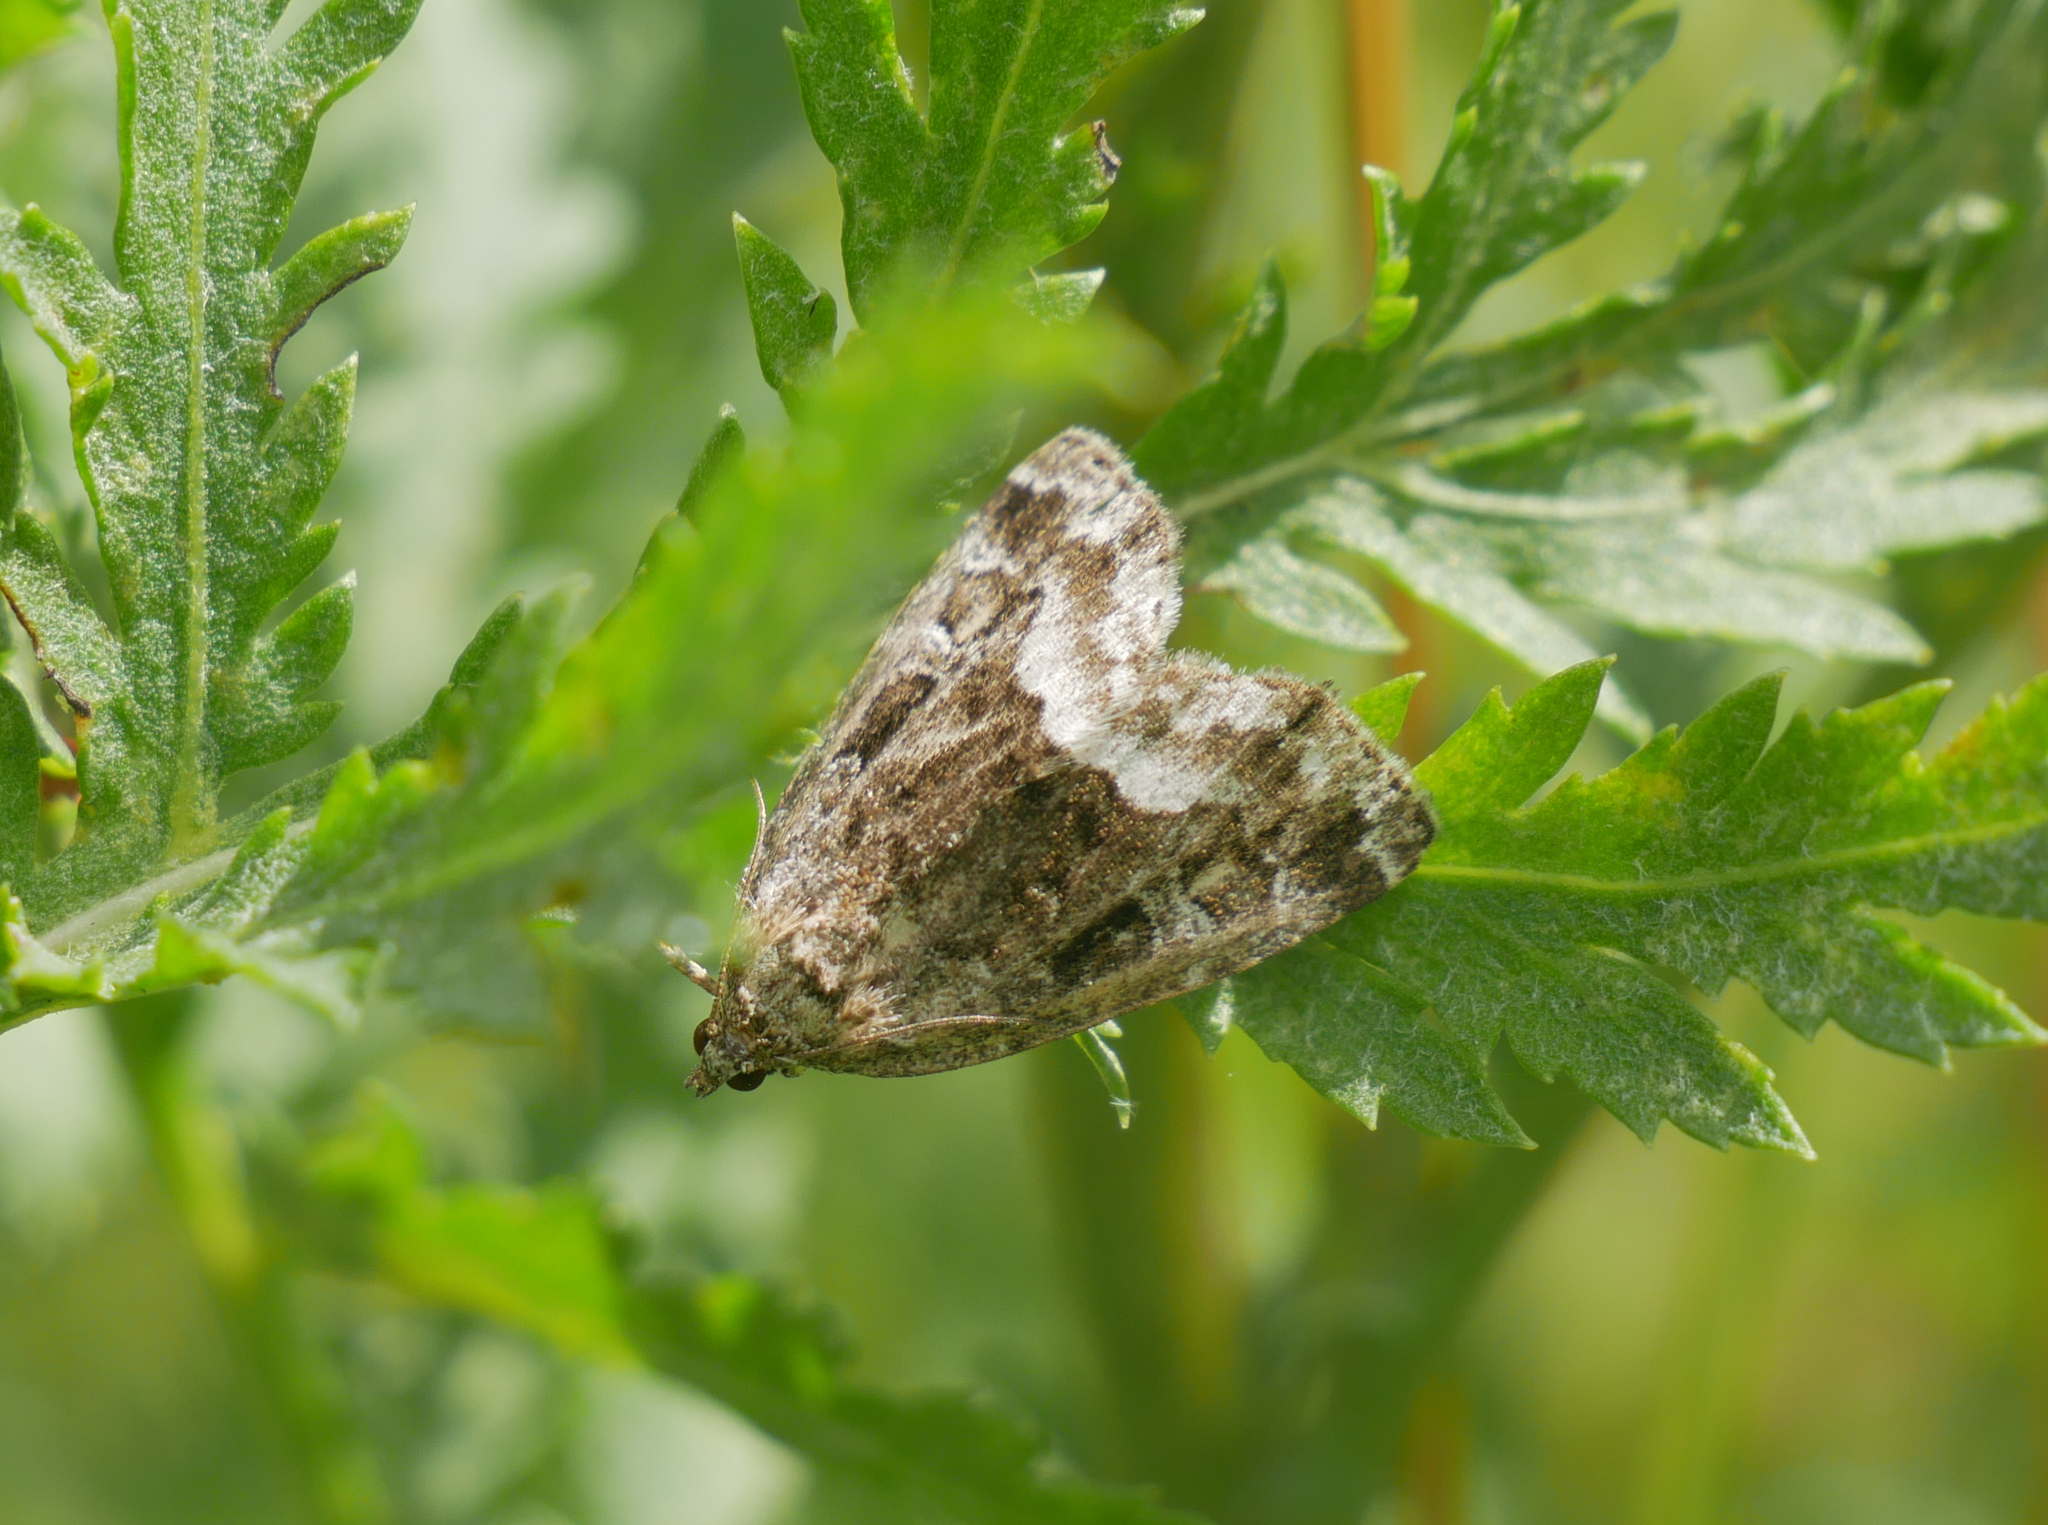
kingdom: Animalia
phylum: Arthropoda
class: Insecta
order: Lepidoptera
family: Noctuidae
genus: Deltote
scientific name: Deltote pygarga
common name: Marbled white spot
